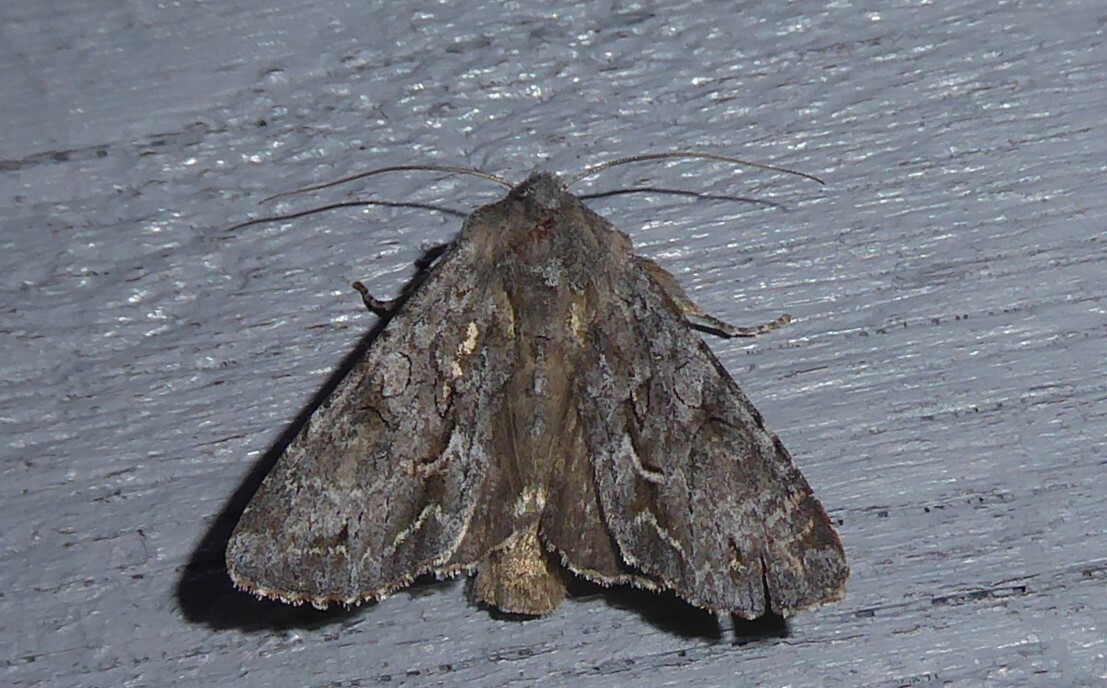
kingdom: Animalia
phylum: Arthropoda
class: Insecta
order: Lepidoptera
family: Noctuidae
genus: Ichneutica
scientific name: Ichneutica
